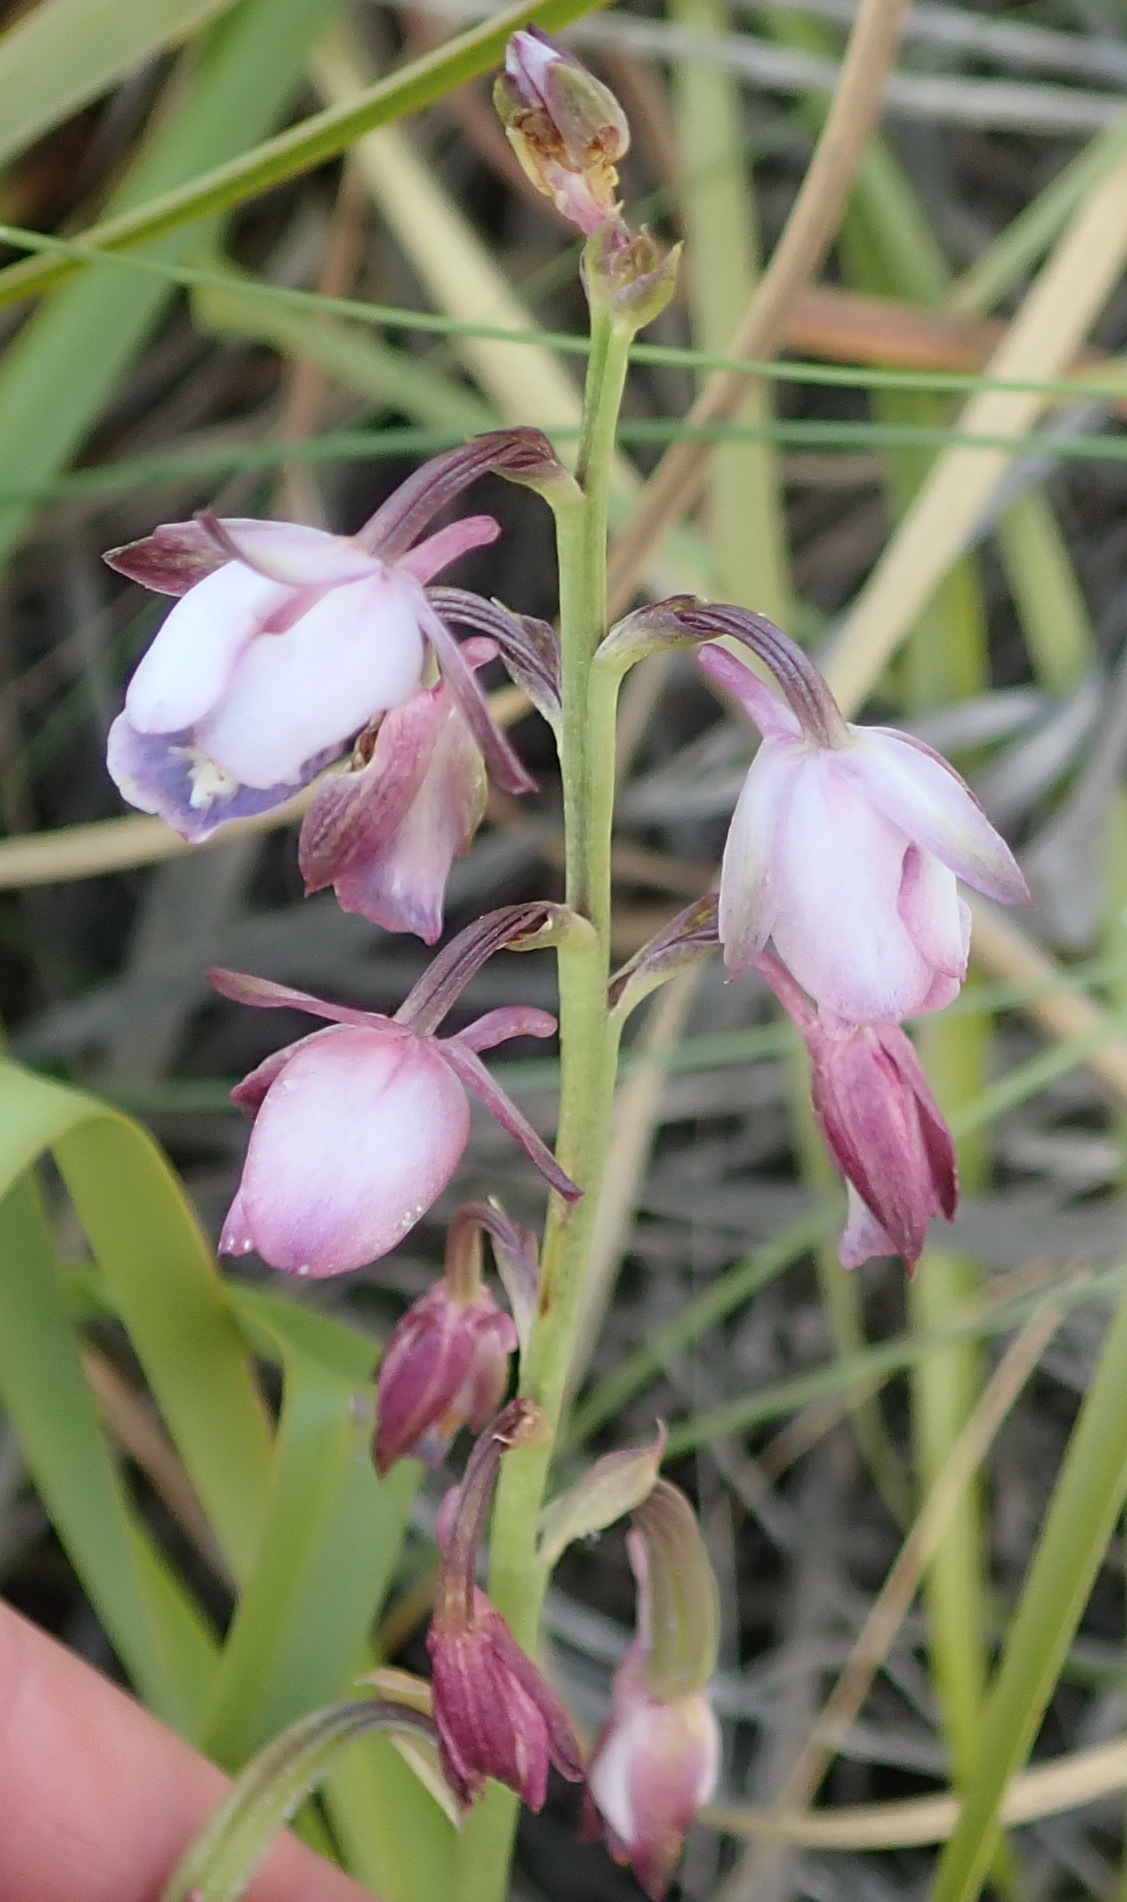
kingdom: Plantae
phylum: Tracheophyta
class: Liliopsida
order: Asparagales
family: Orchidaceae
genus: Eulophia
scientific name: Eulophia hians
